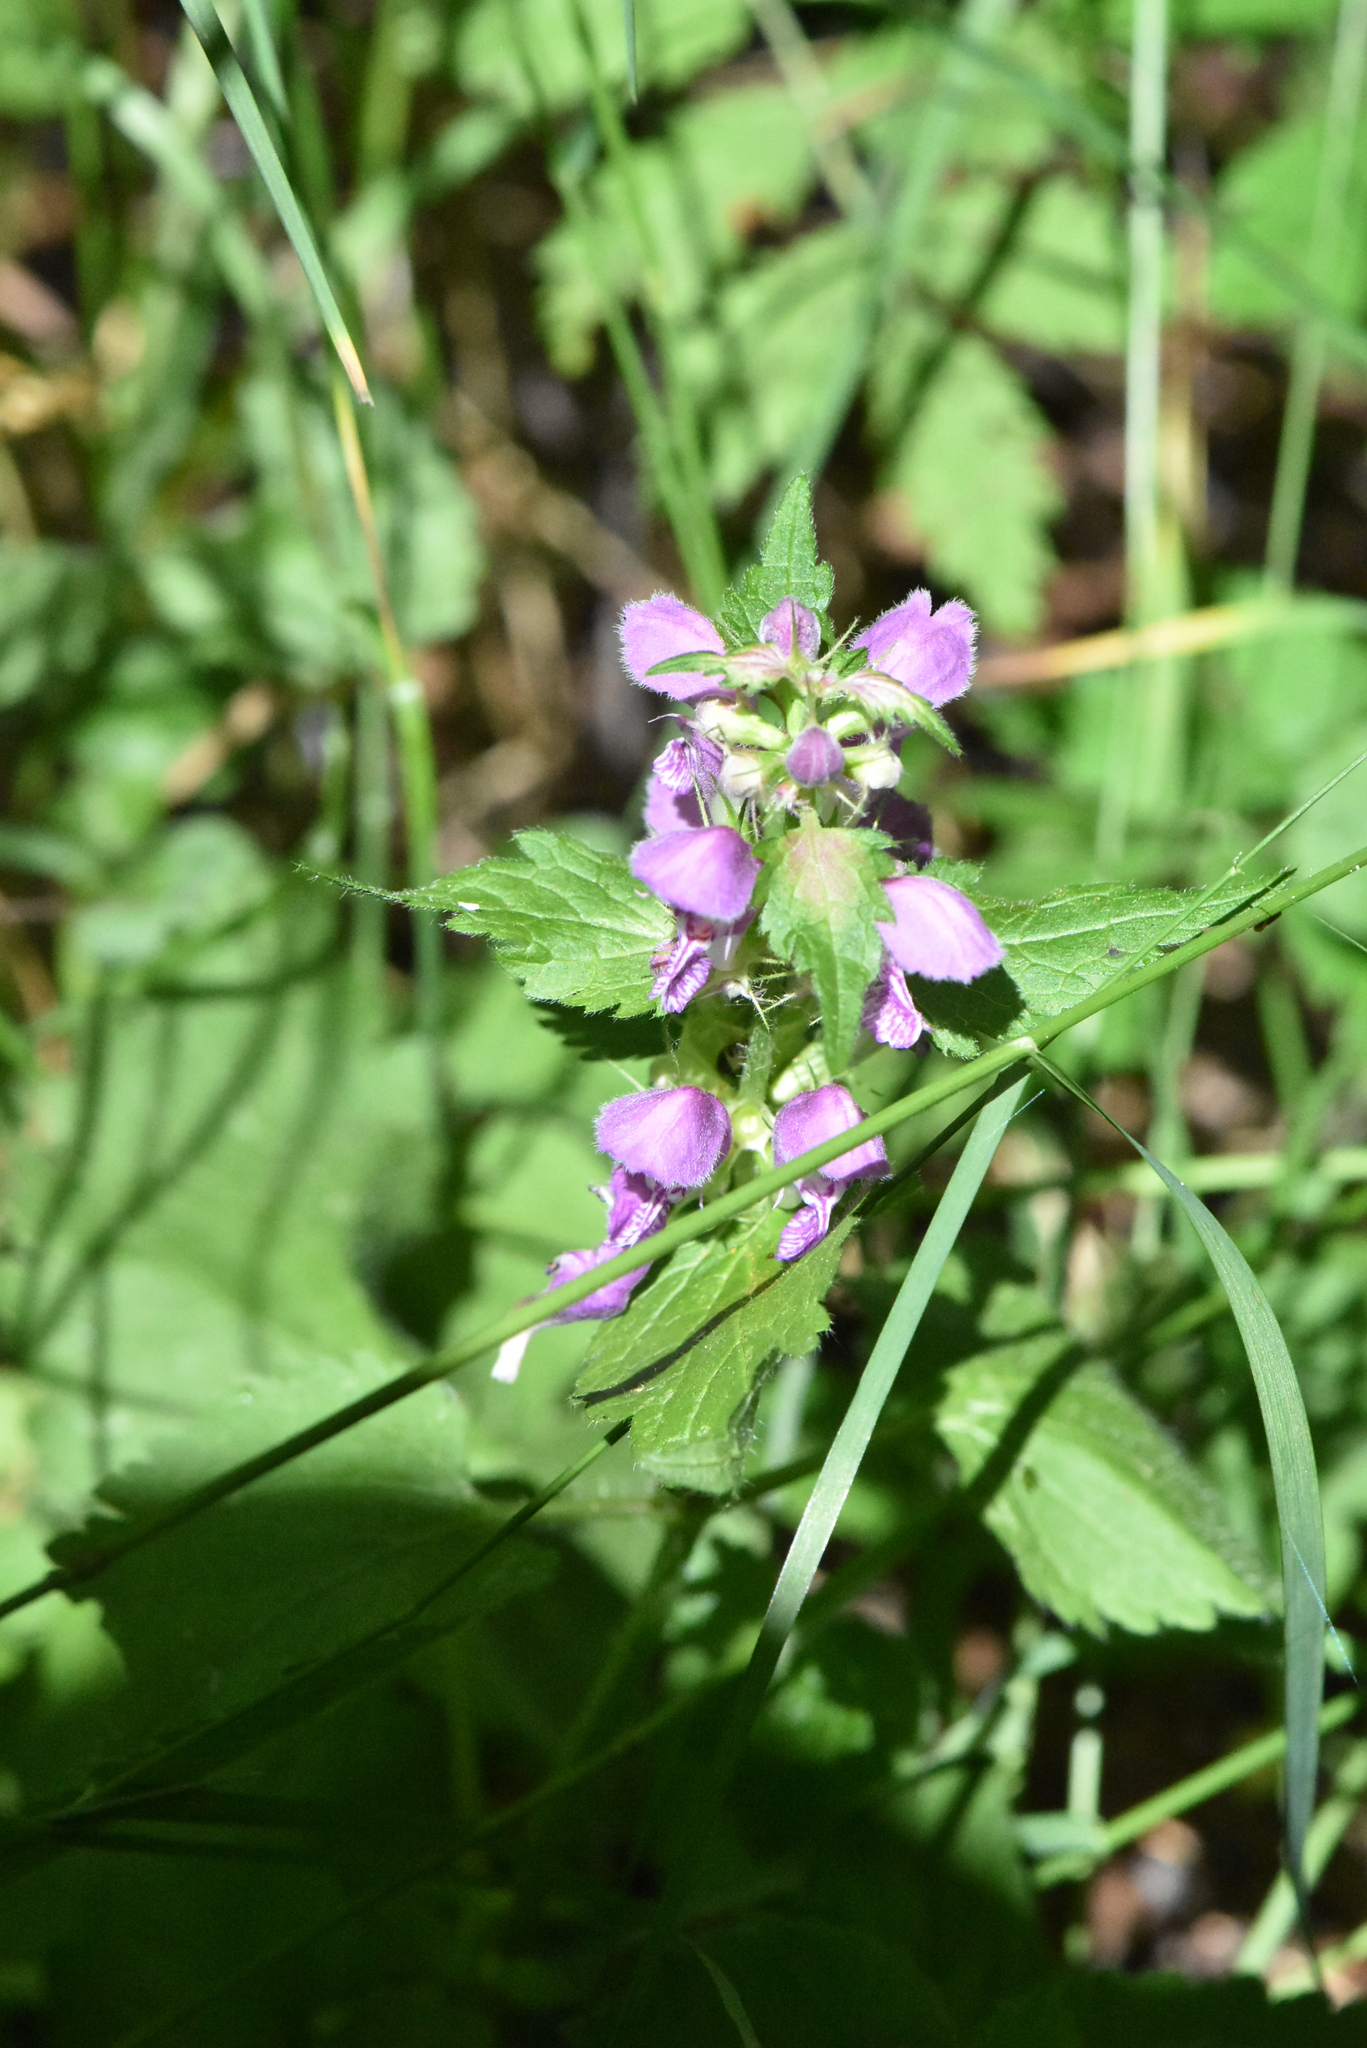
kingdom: Plantae
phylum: Tracheophyta
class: Magnoliopsida
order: Lamiales
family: Lamiaceae
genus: Lamium
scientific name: Lamium maculatum
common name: Spotted dead-nettle
